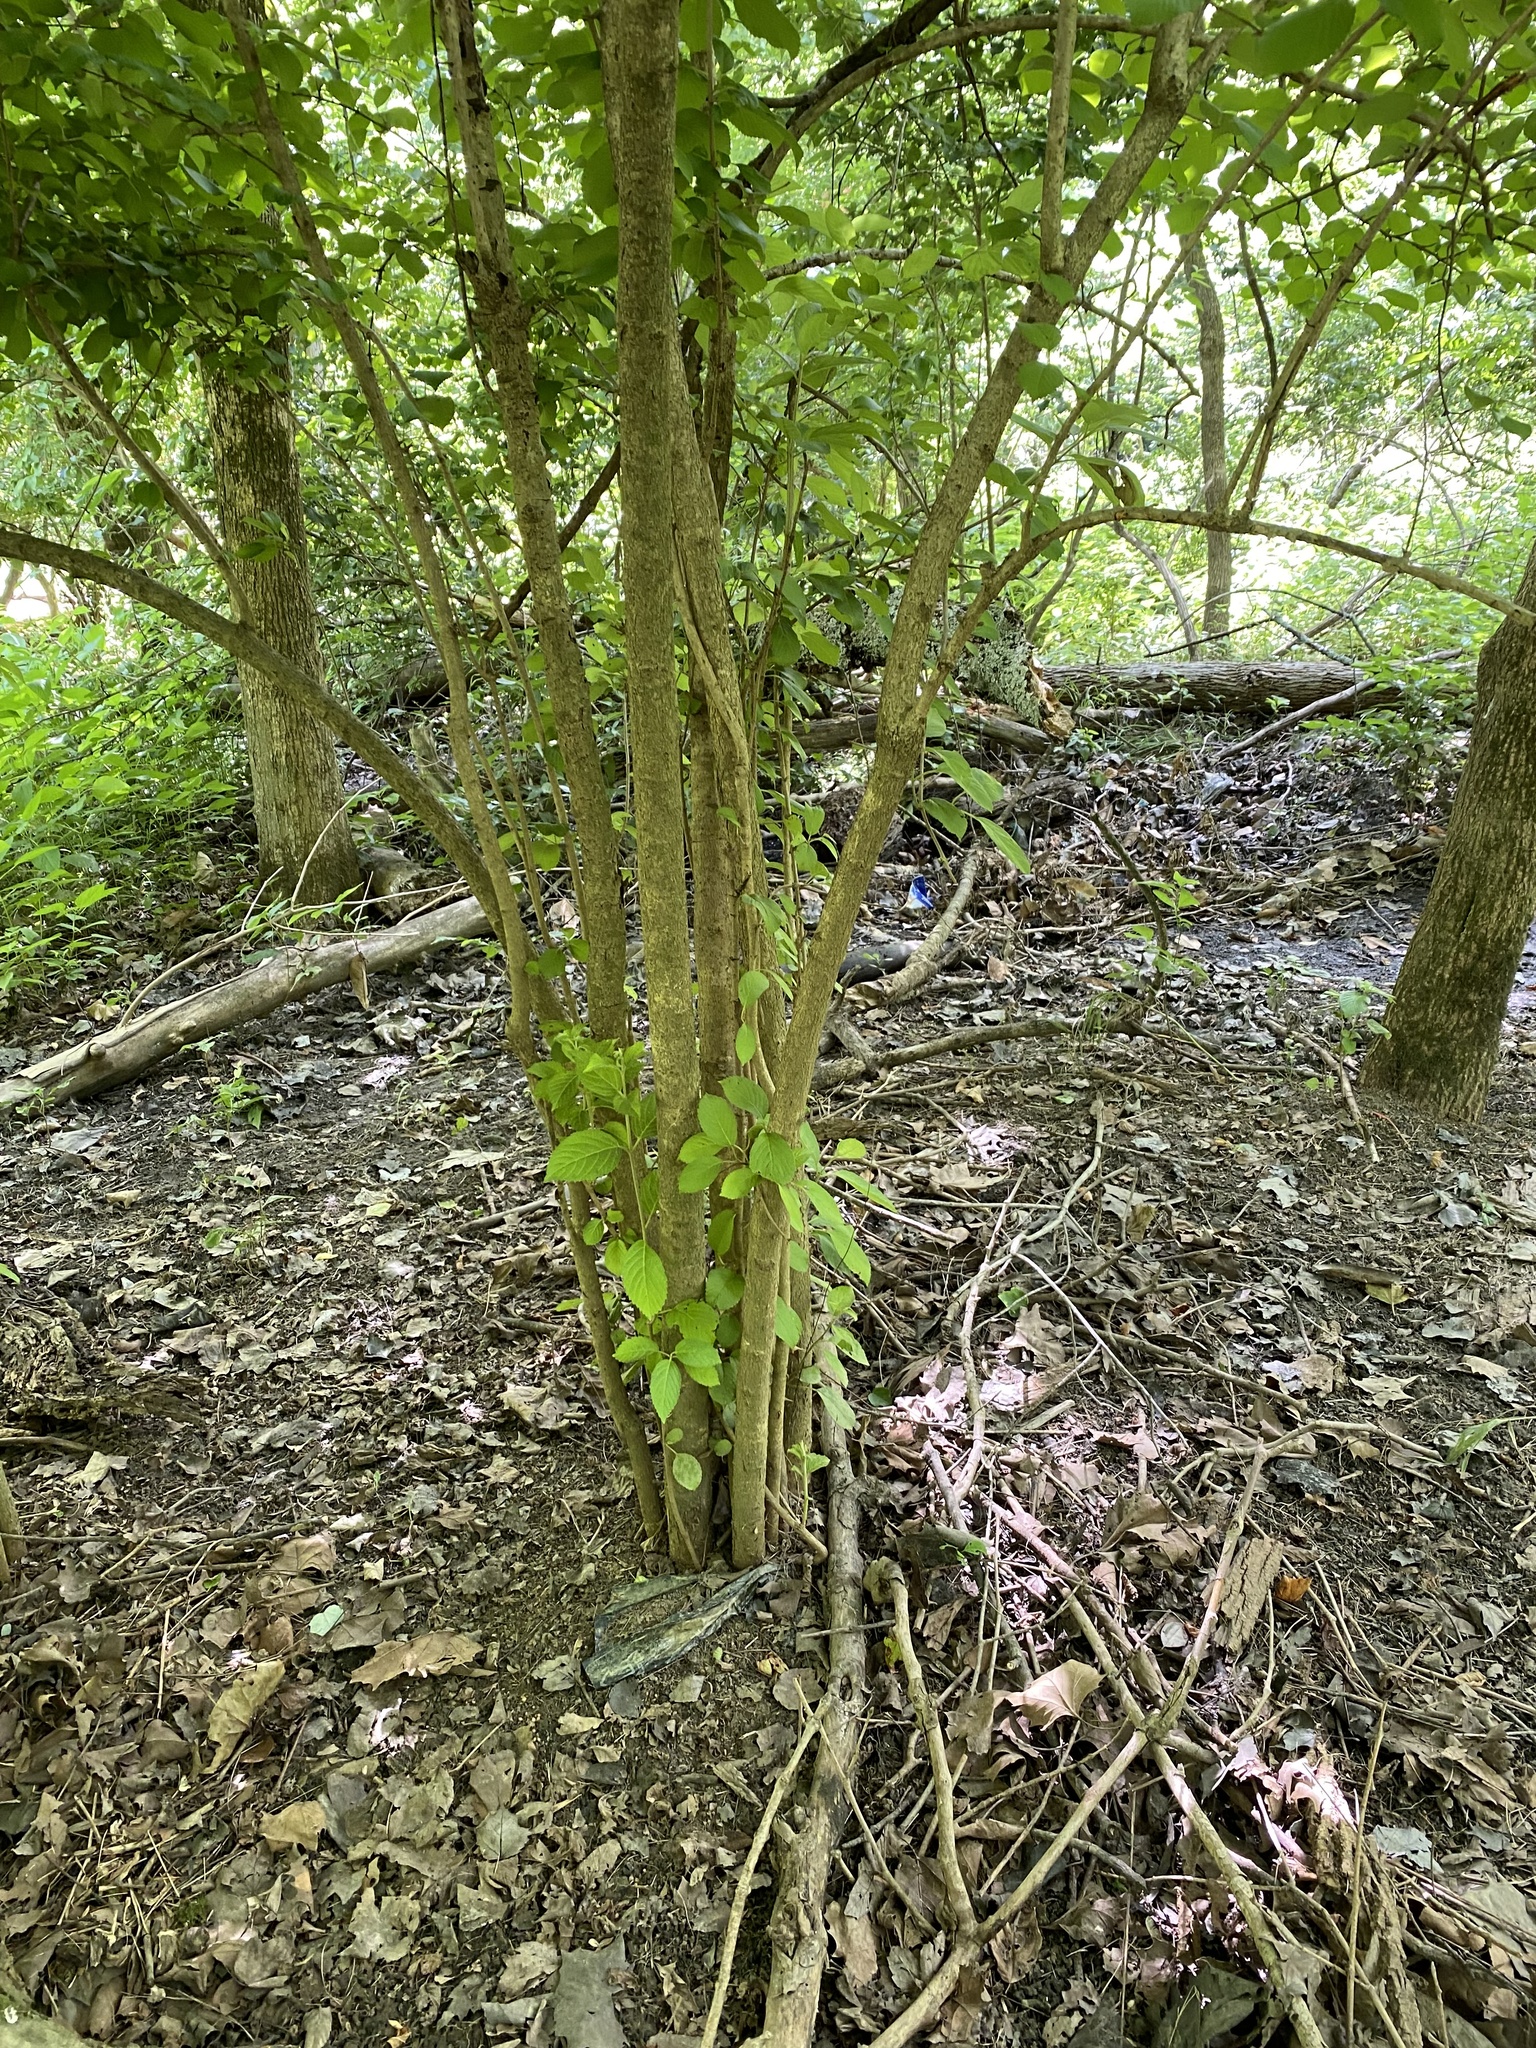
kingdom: Plantae
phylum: Tracheophyta
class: Magnoliopsida
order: Dipsacales
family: Viburnaceae
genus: Viburnum
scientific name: Viburnum plicatum
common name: Japanese snowball
